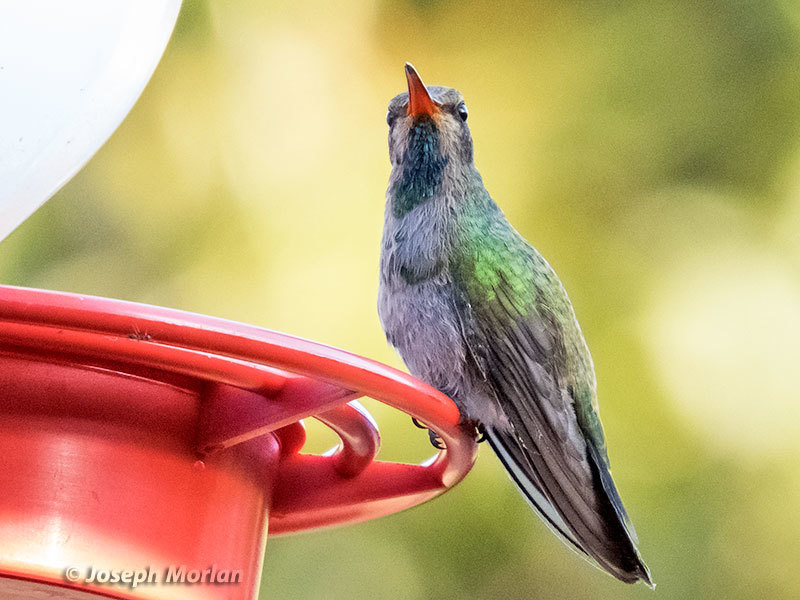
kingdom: Animalia
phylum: Chordata
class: Aves
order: Apodiformes
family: Trochilidae
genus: Cynanthus
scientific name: Cynanthus latirostris
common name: Broad-billed hummingbird
